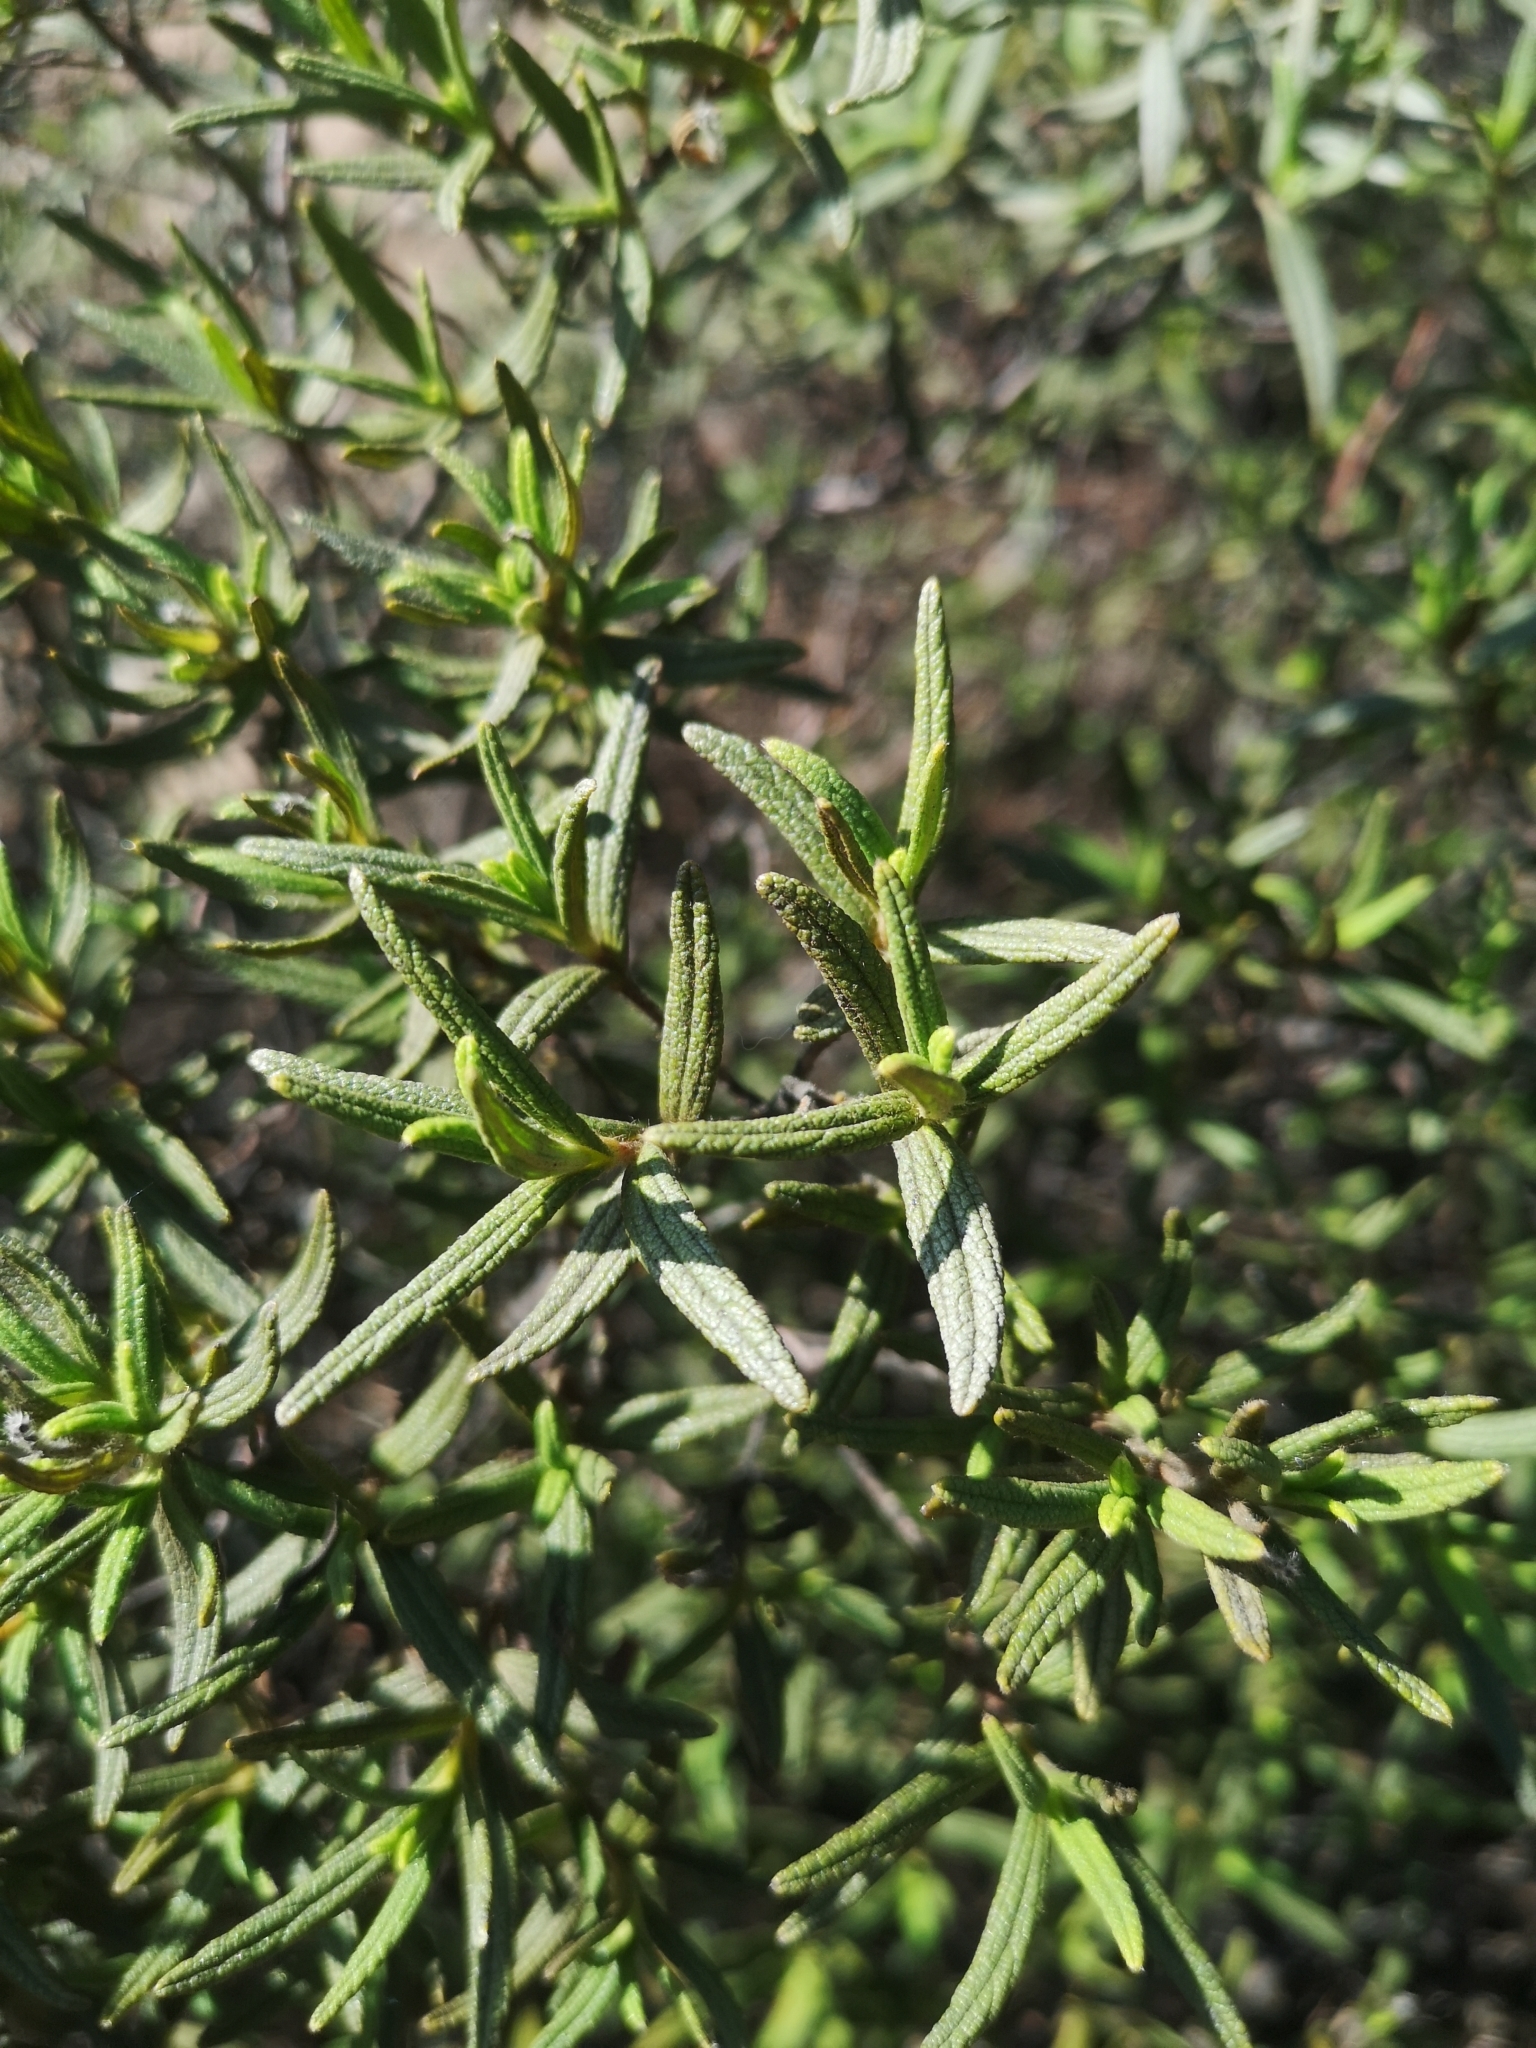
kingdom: Plantae
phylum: Tracheophyta
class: Magnoliopsida
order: Malvales
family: Cistaceae
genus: Cistus
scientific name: Cistus monspeliensis
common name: Montpelier cistus
